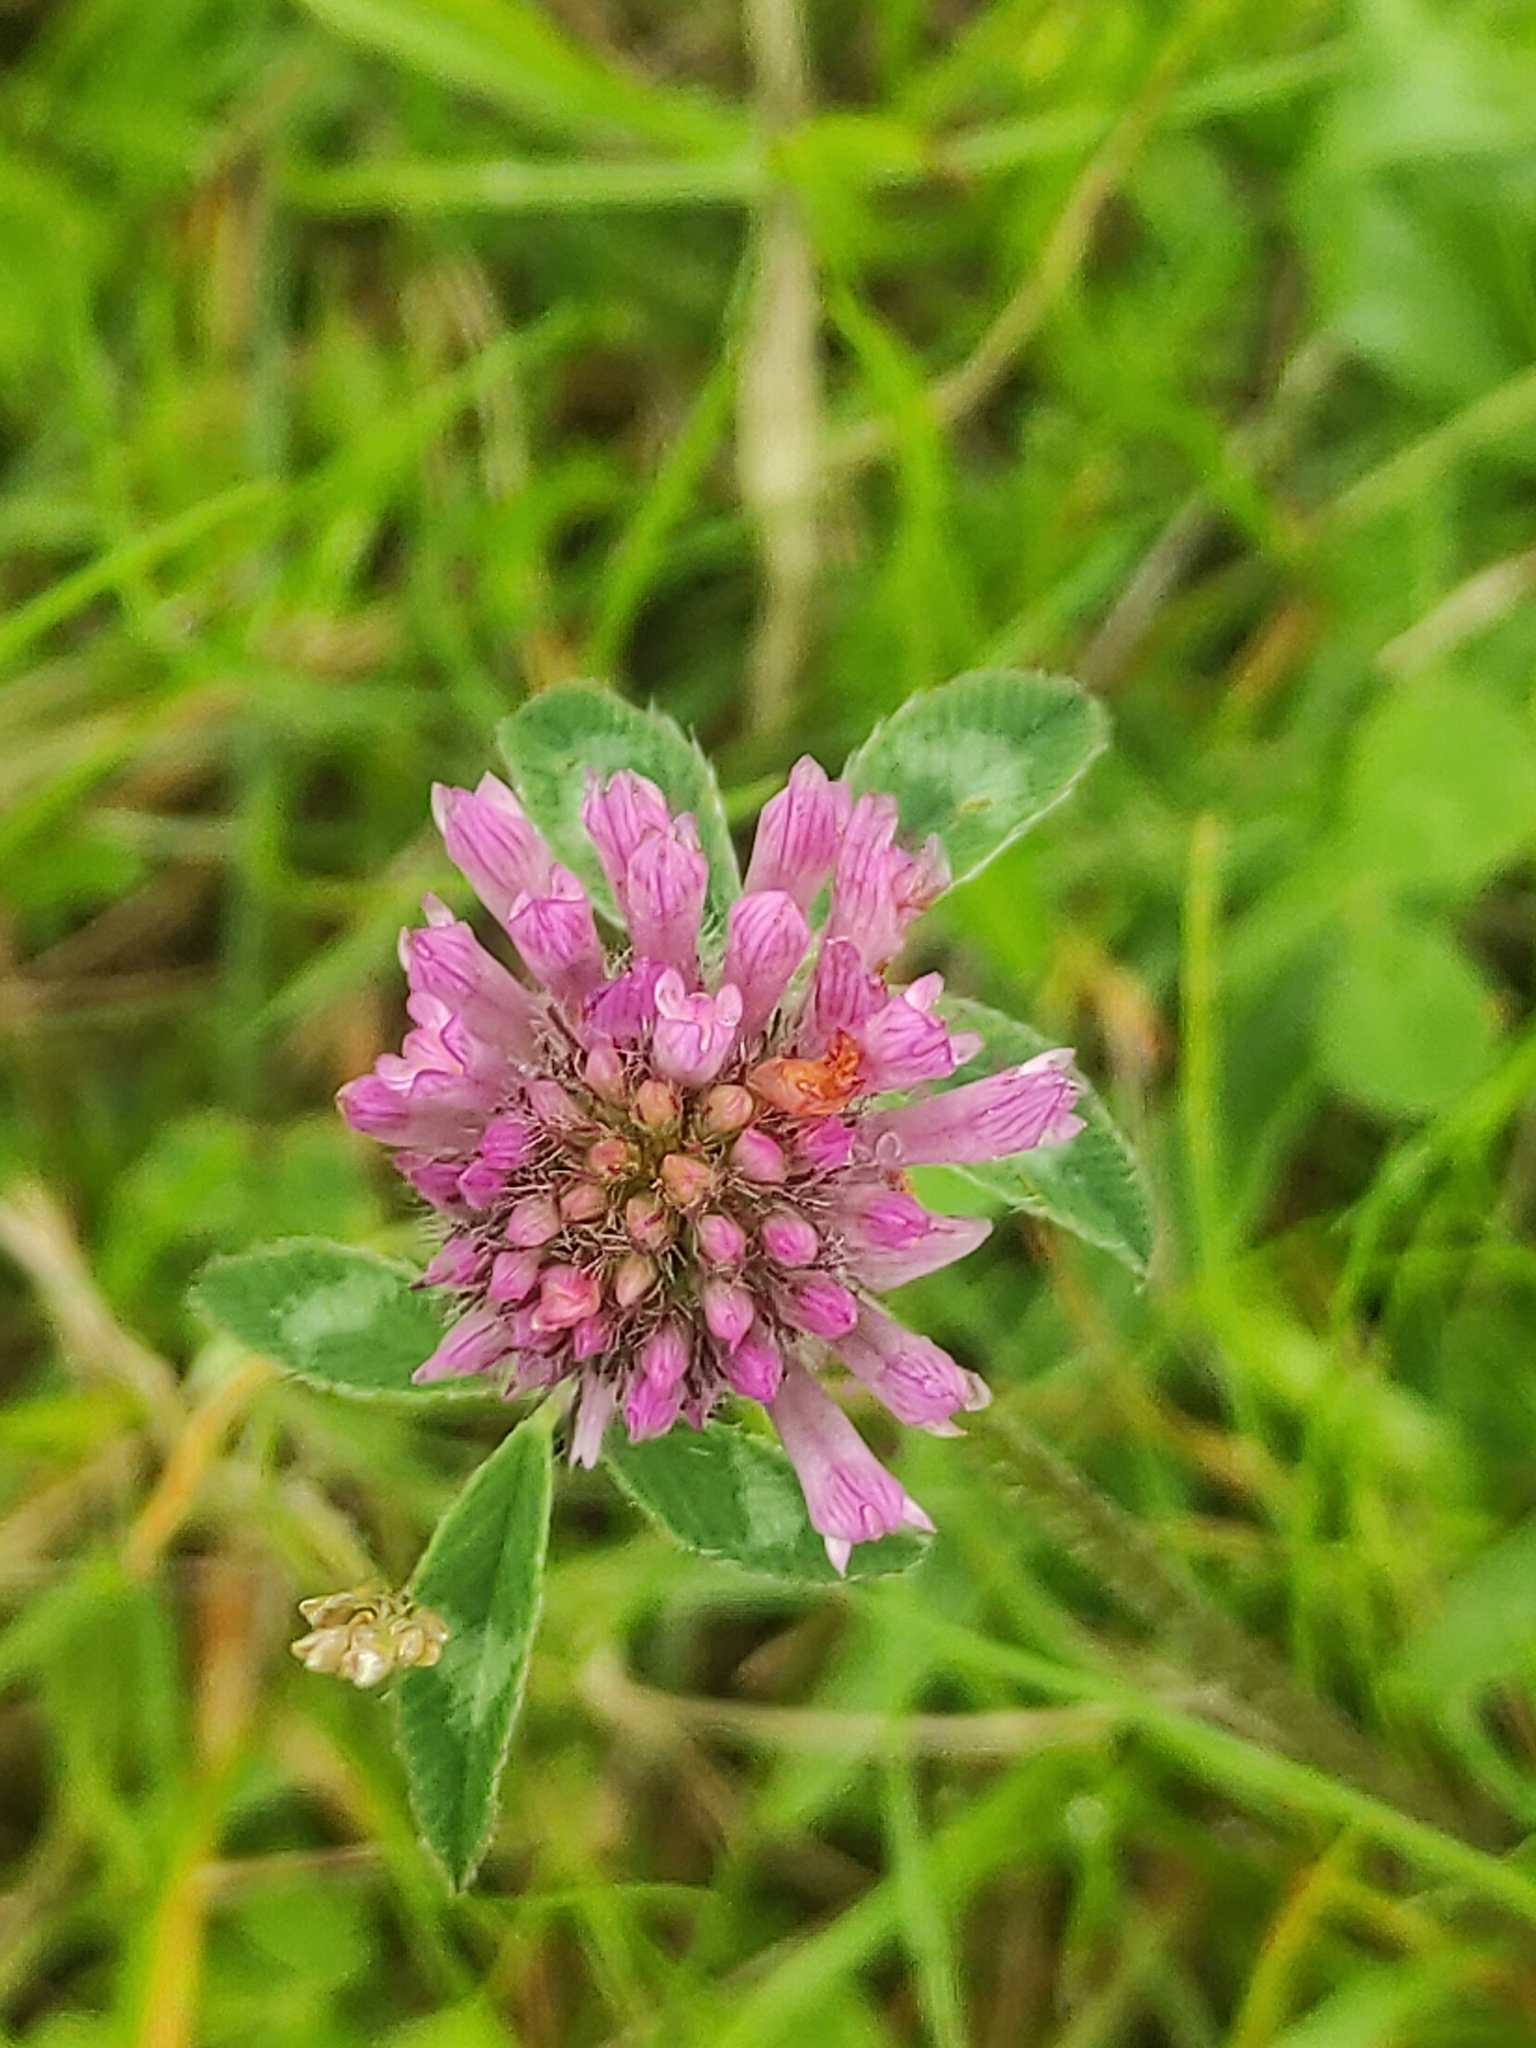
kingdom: Plantae
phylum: Tracheophyta
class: Magnoliopsida
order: Fabales
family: Fabaceae
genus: Trifolium
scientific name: Trifolium pratense
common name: Red clover
